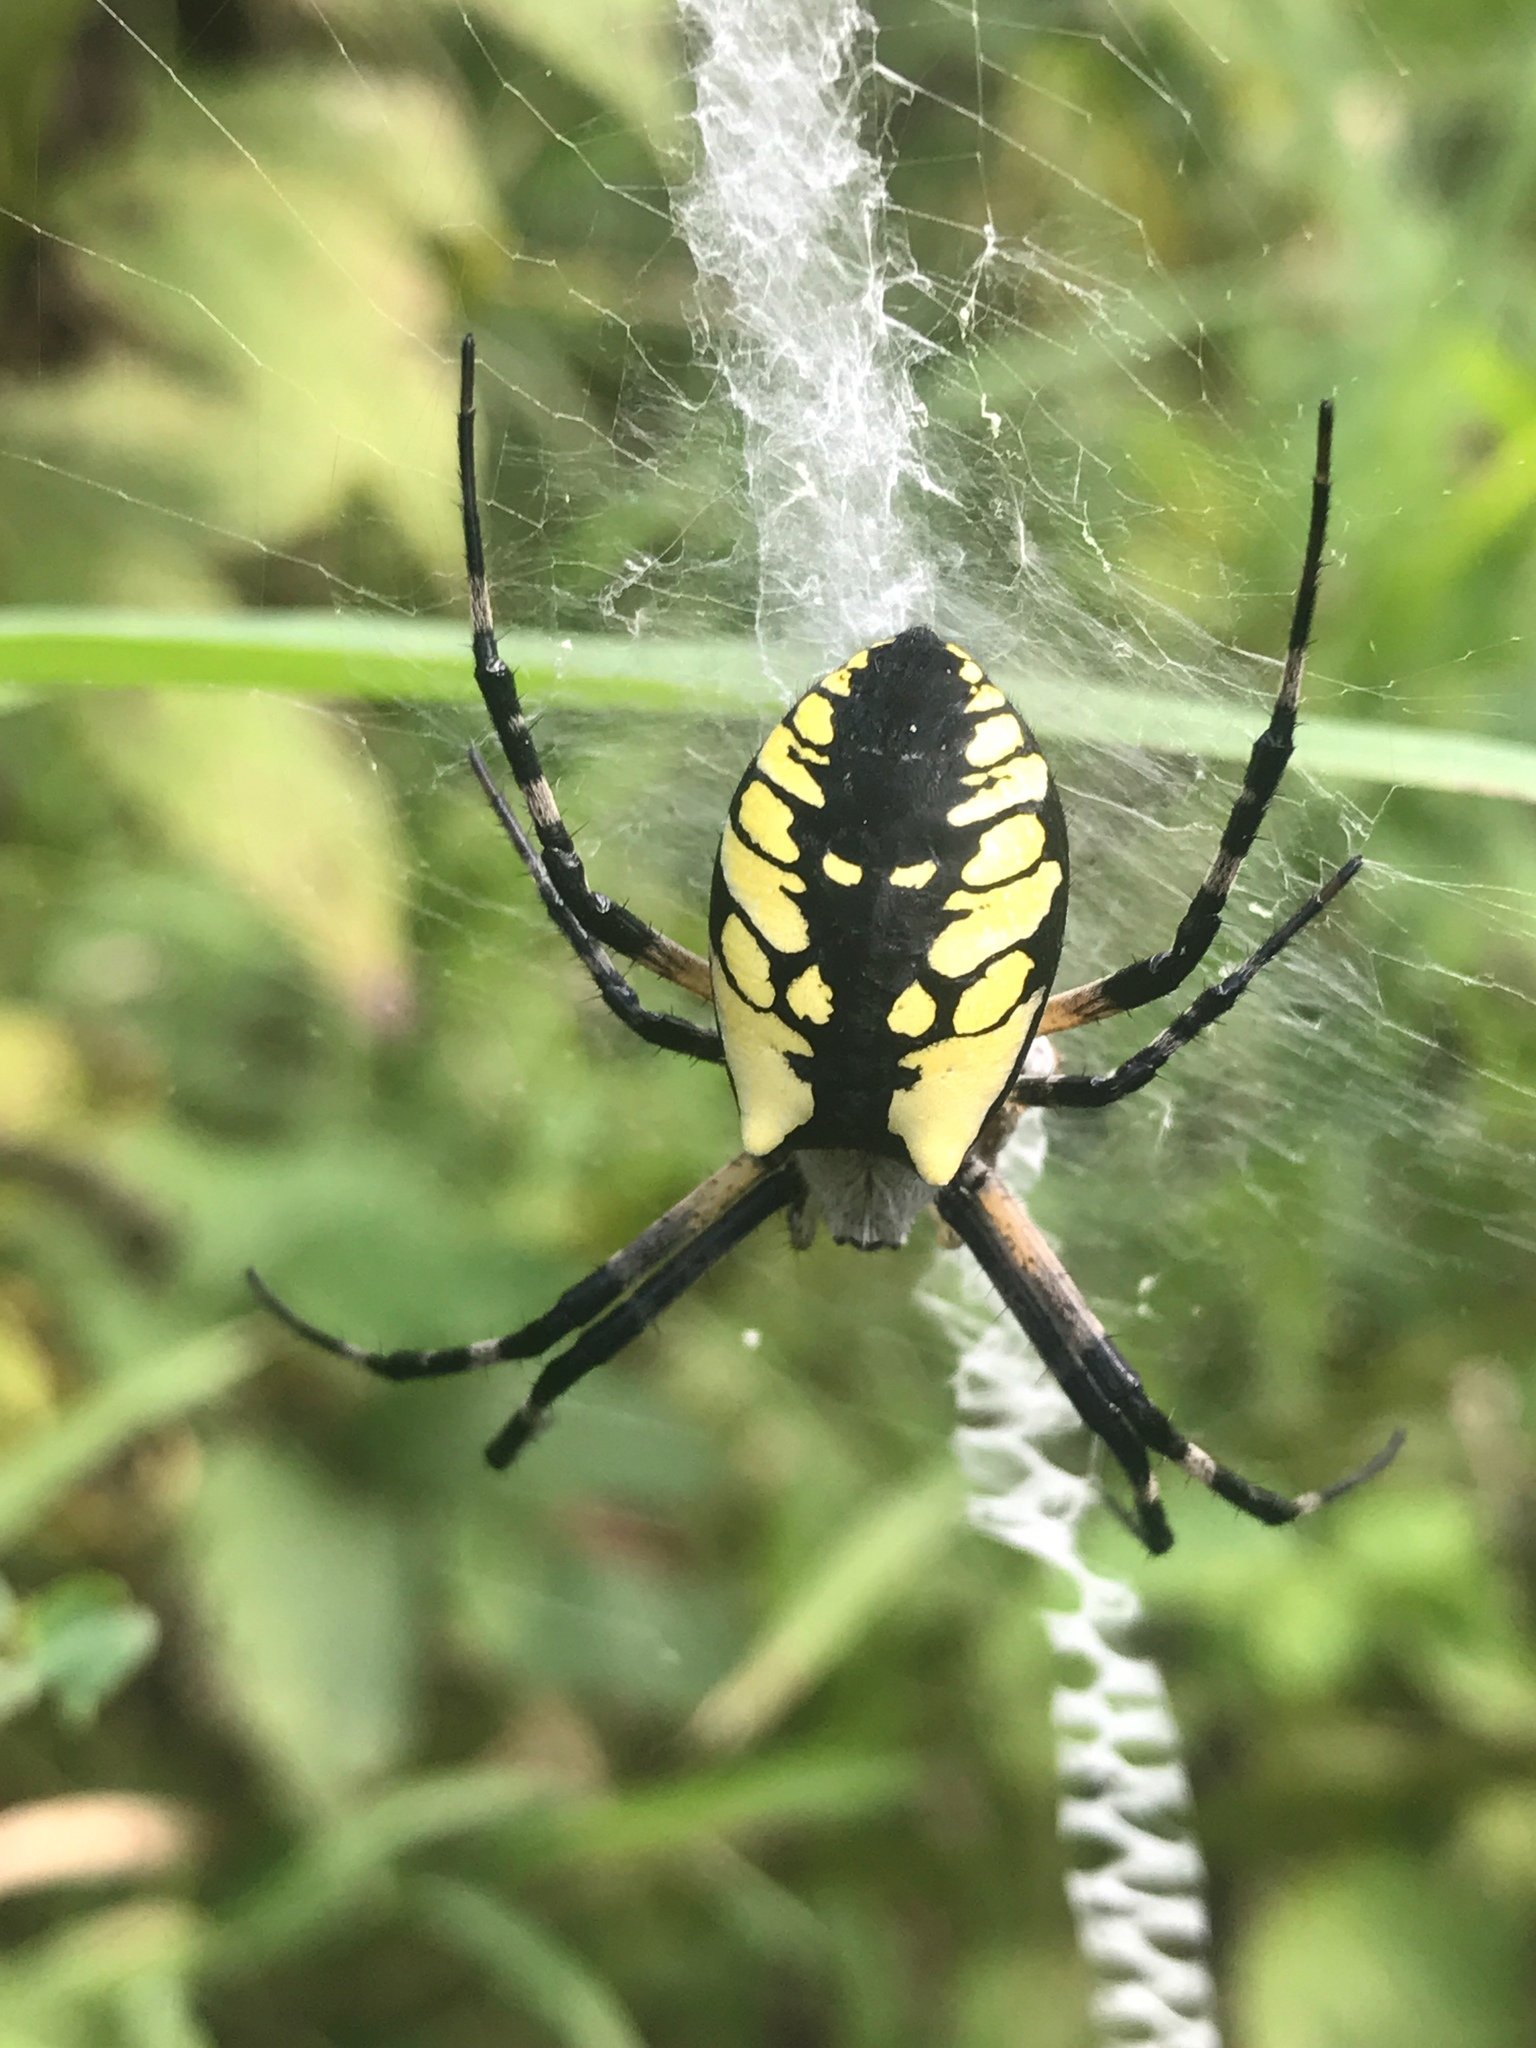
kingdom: Animalia
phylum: Arthropoda
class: Arachnida
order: Araneae
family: Araneidae
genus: Argiope
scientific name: Argiope aurantia
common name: Orb weavers
